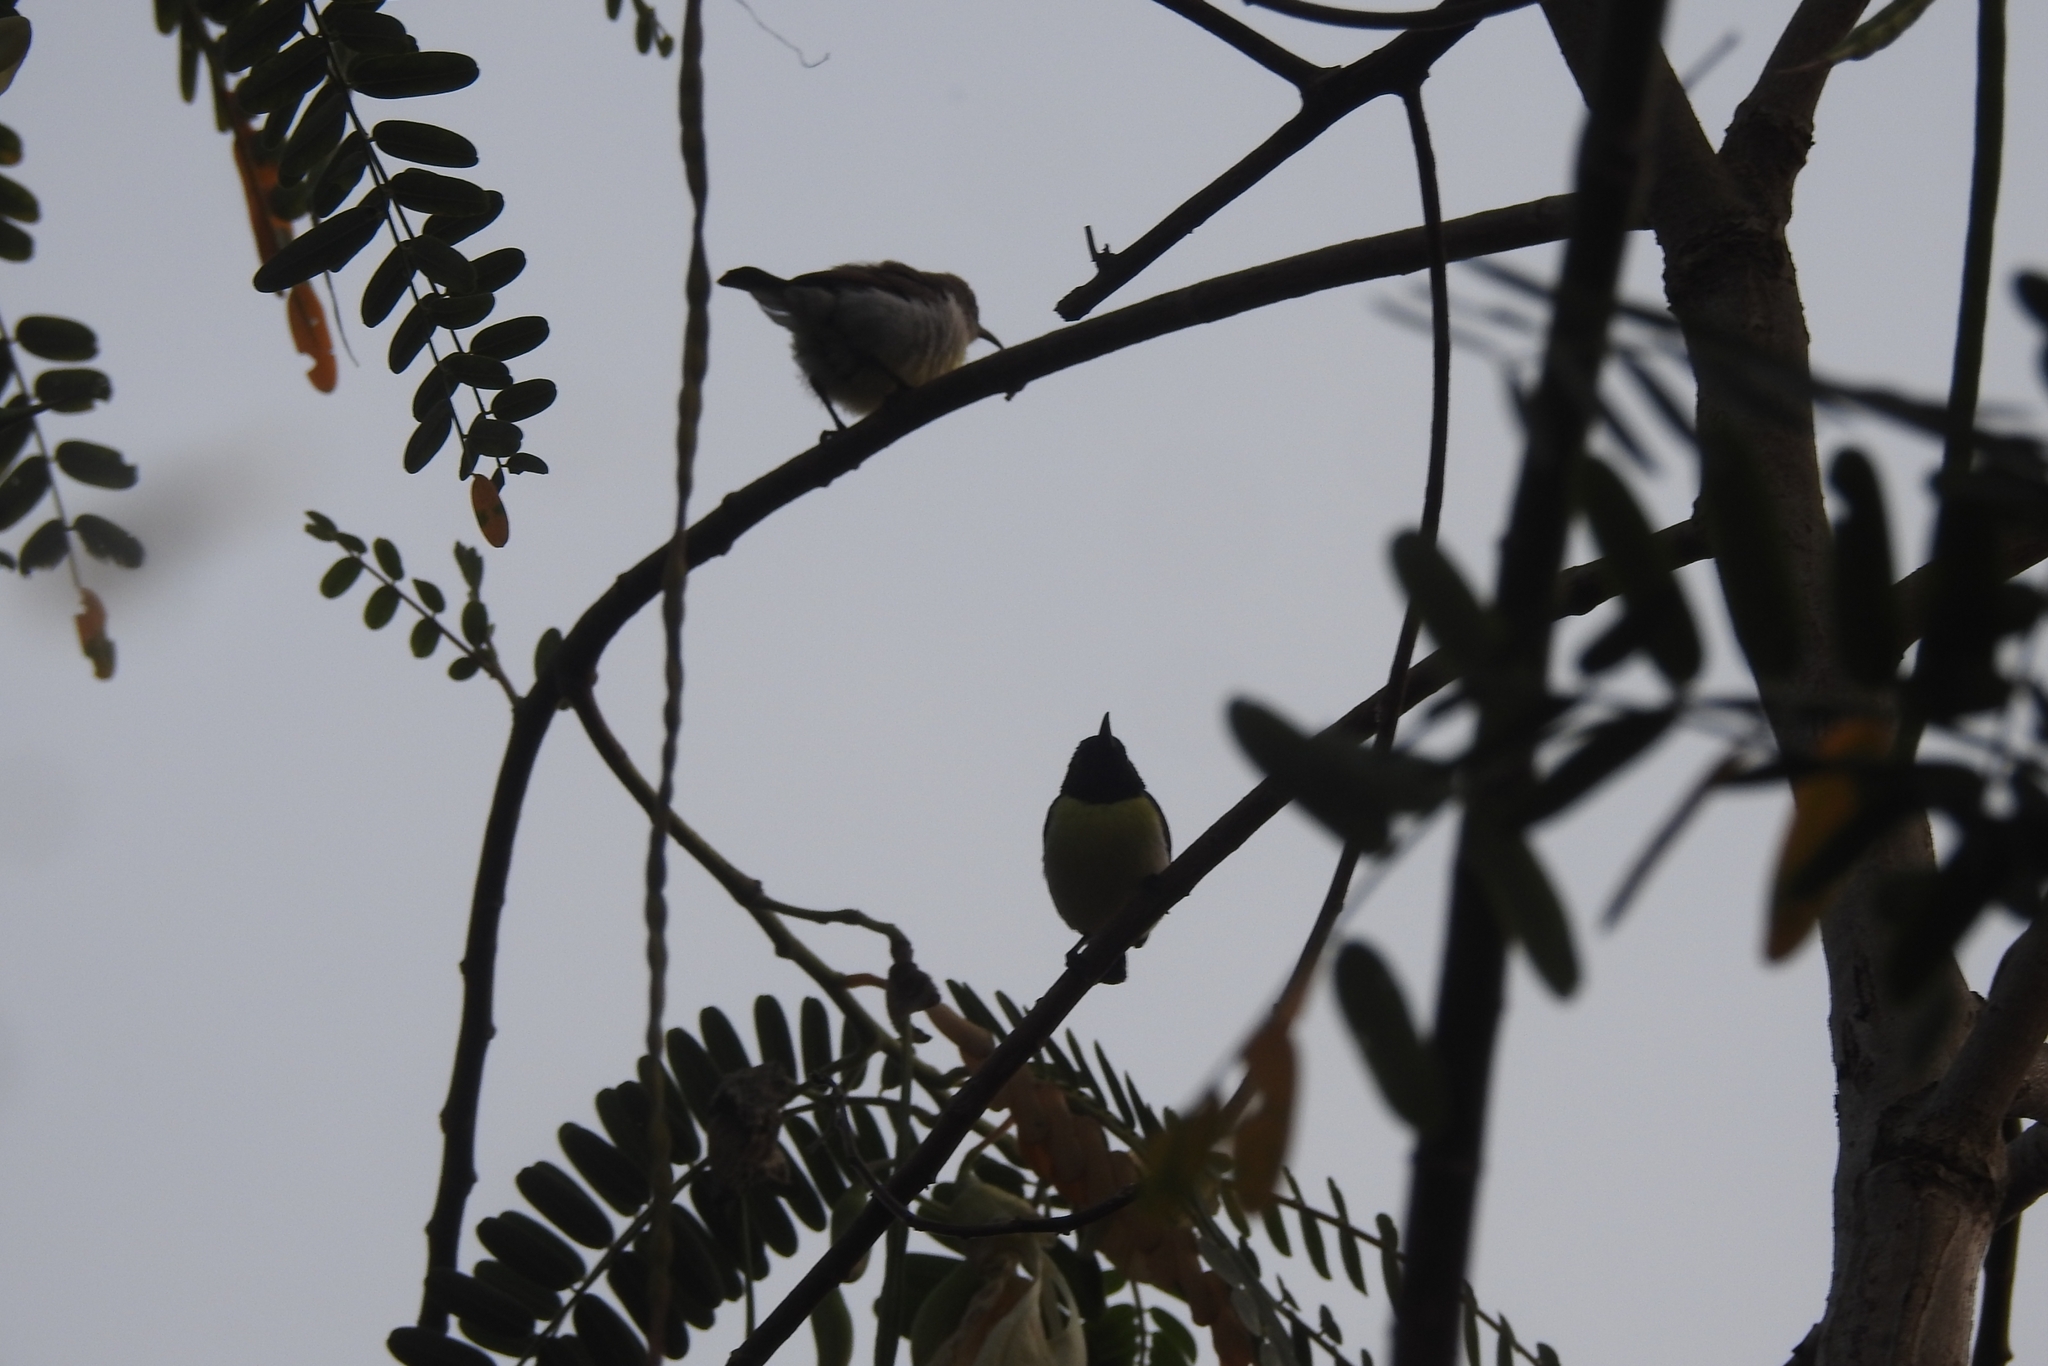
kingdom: Animalia
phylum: Chordata
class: Aves
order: Passeriformes
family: Nectariniidae
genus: Leptocoma
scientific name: Leptocoma zeylonica
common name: Purple-rumped sunbird
